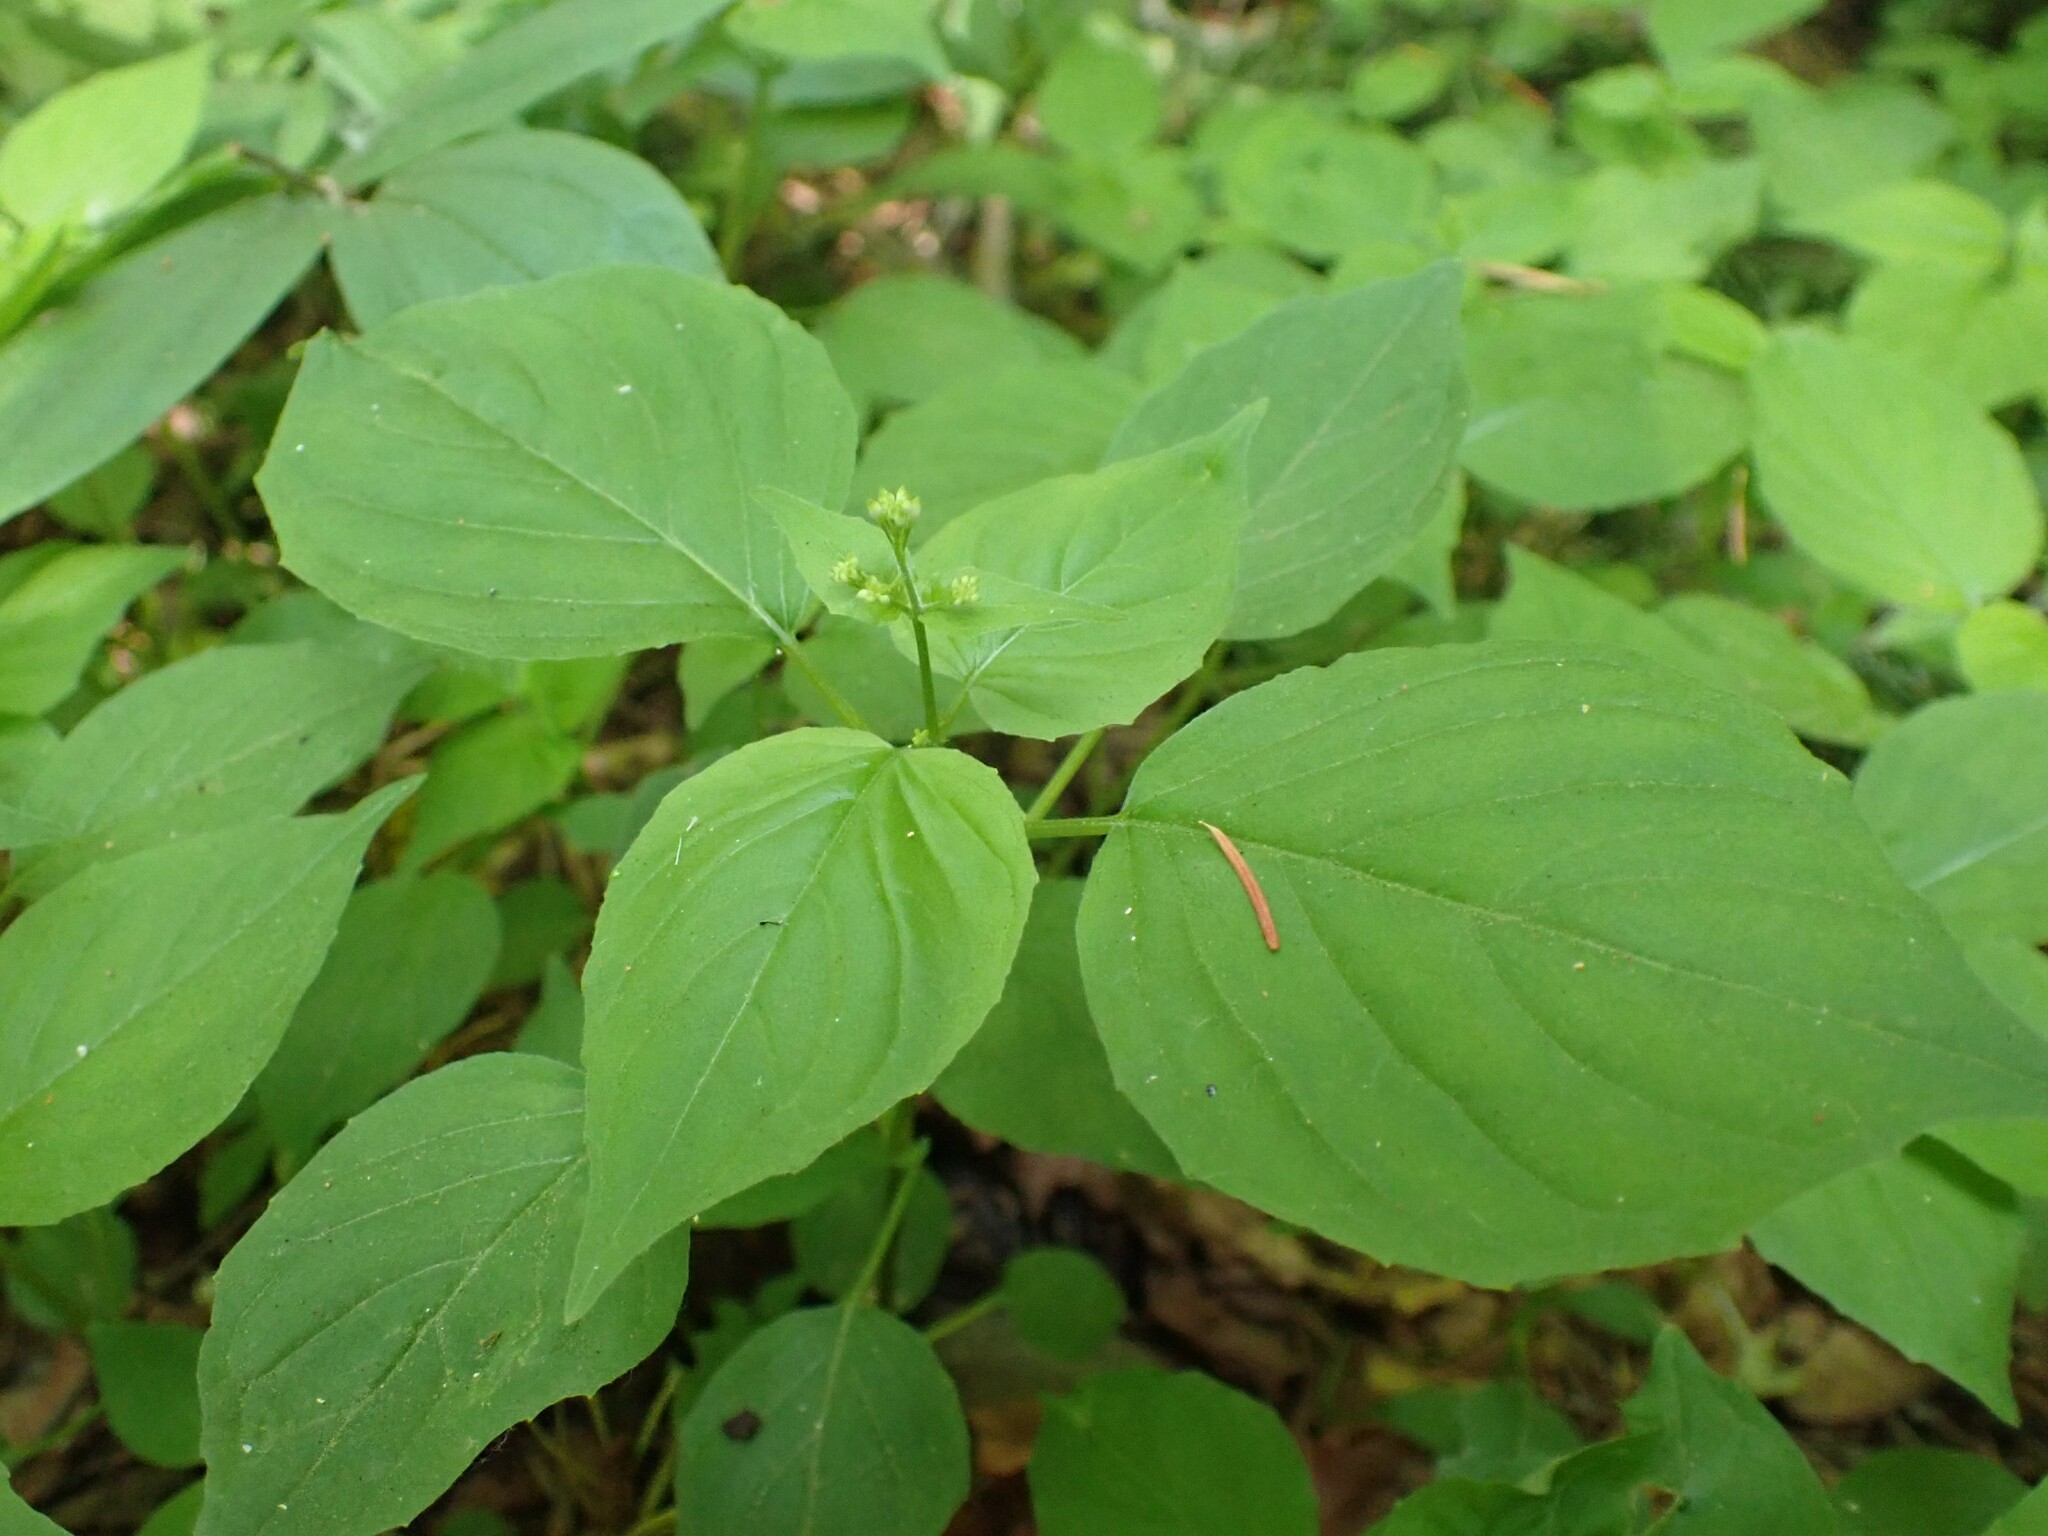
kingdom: Plantae
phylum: Tracheophyta
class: Magnoliopsida
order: Myrtales
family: Onagraceae
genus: Circaea
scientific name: Circaea alpina
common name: Alpine enchanter's-nightshade
